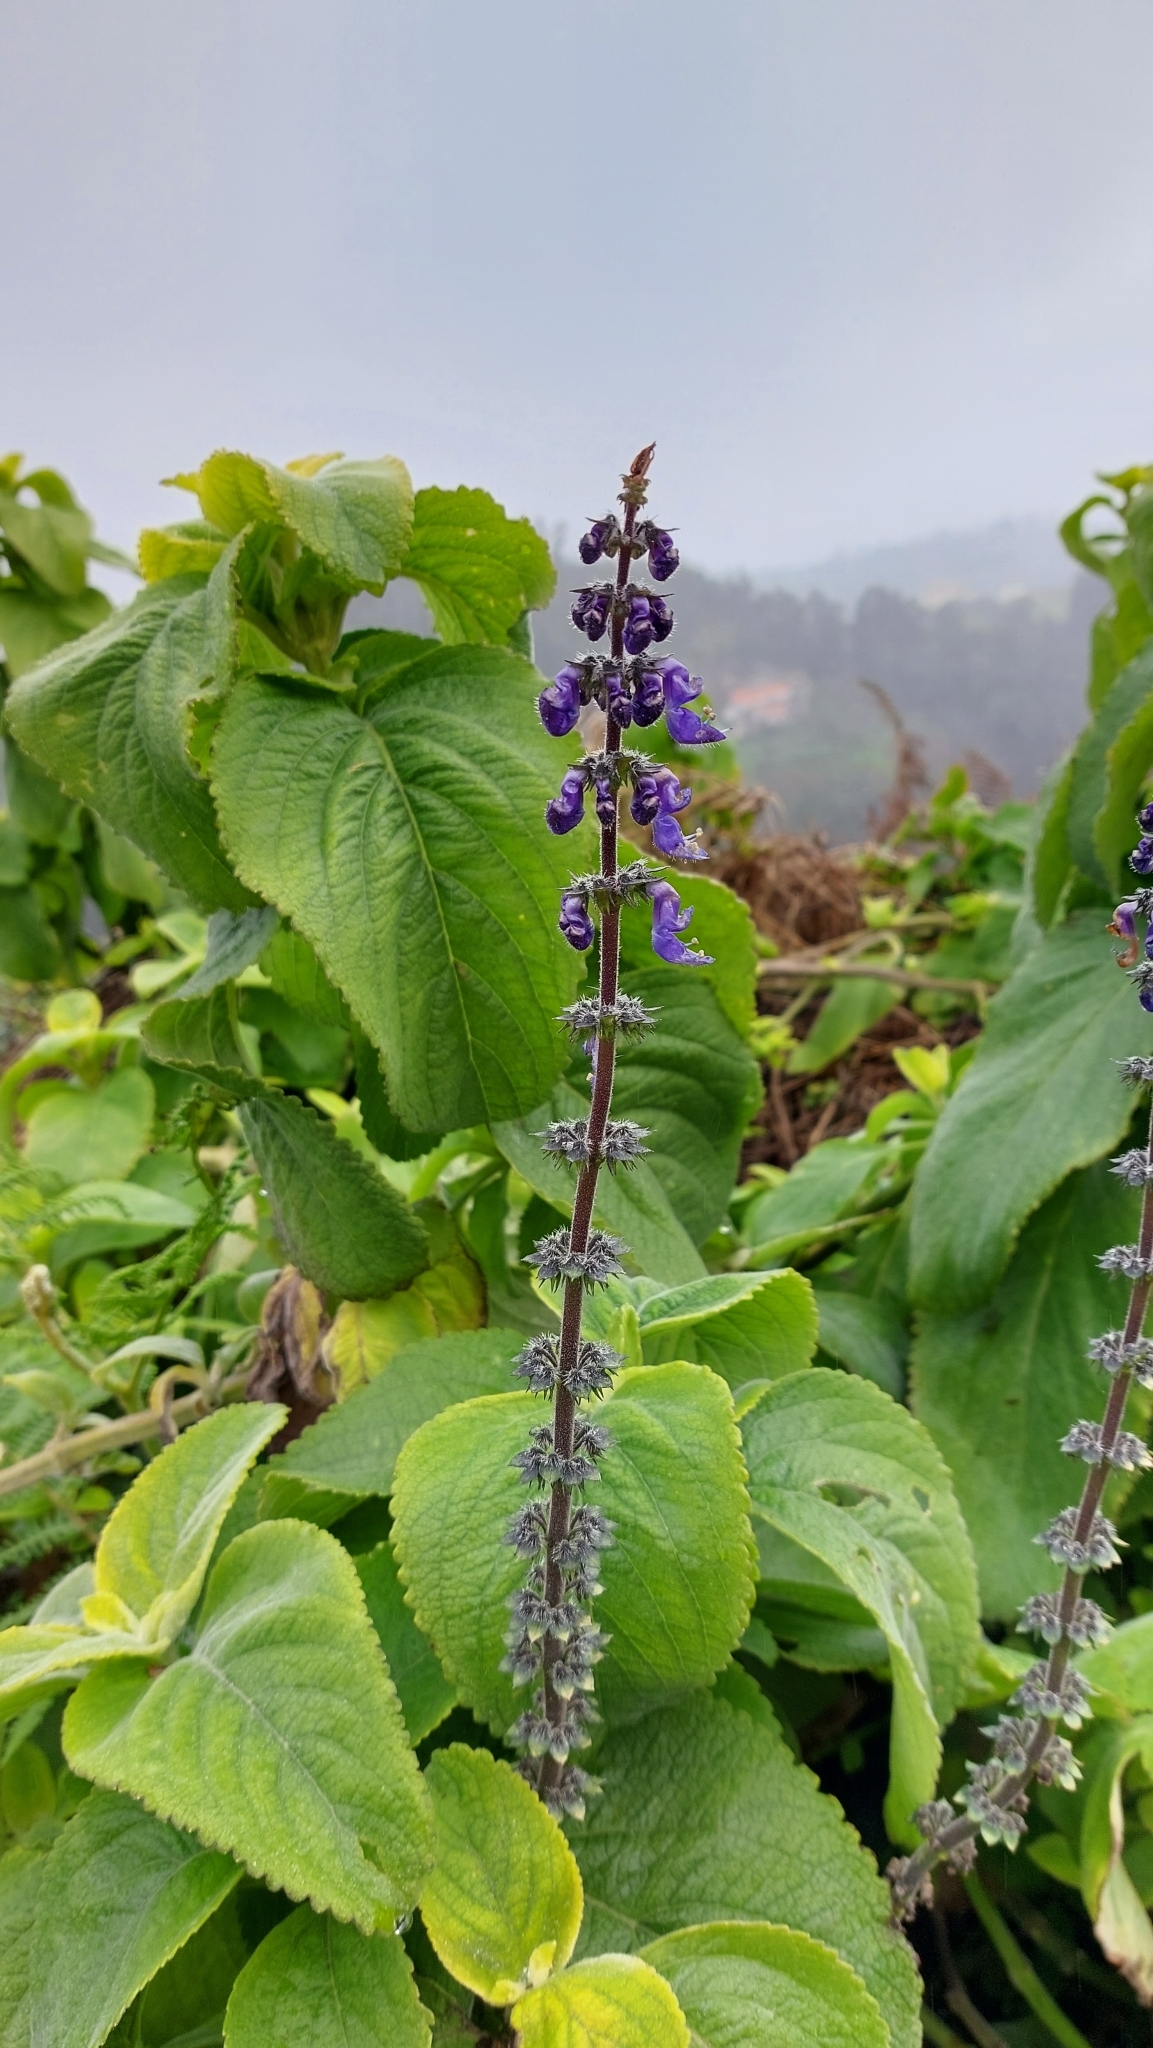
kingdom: Plantae
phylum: Tracheophyta
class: Magnoliopsida
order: Lamiales
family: Lamiaceae
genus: Coleus
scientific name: Coleus barbatus
